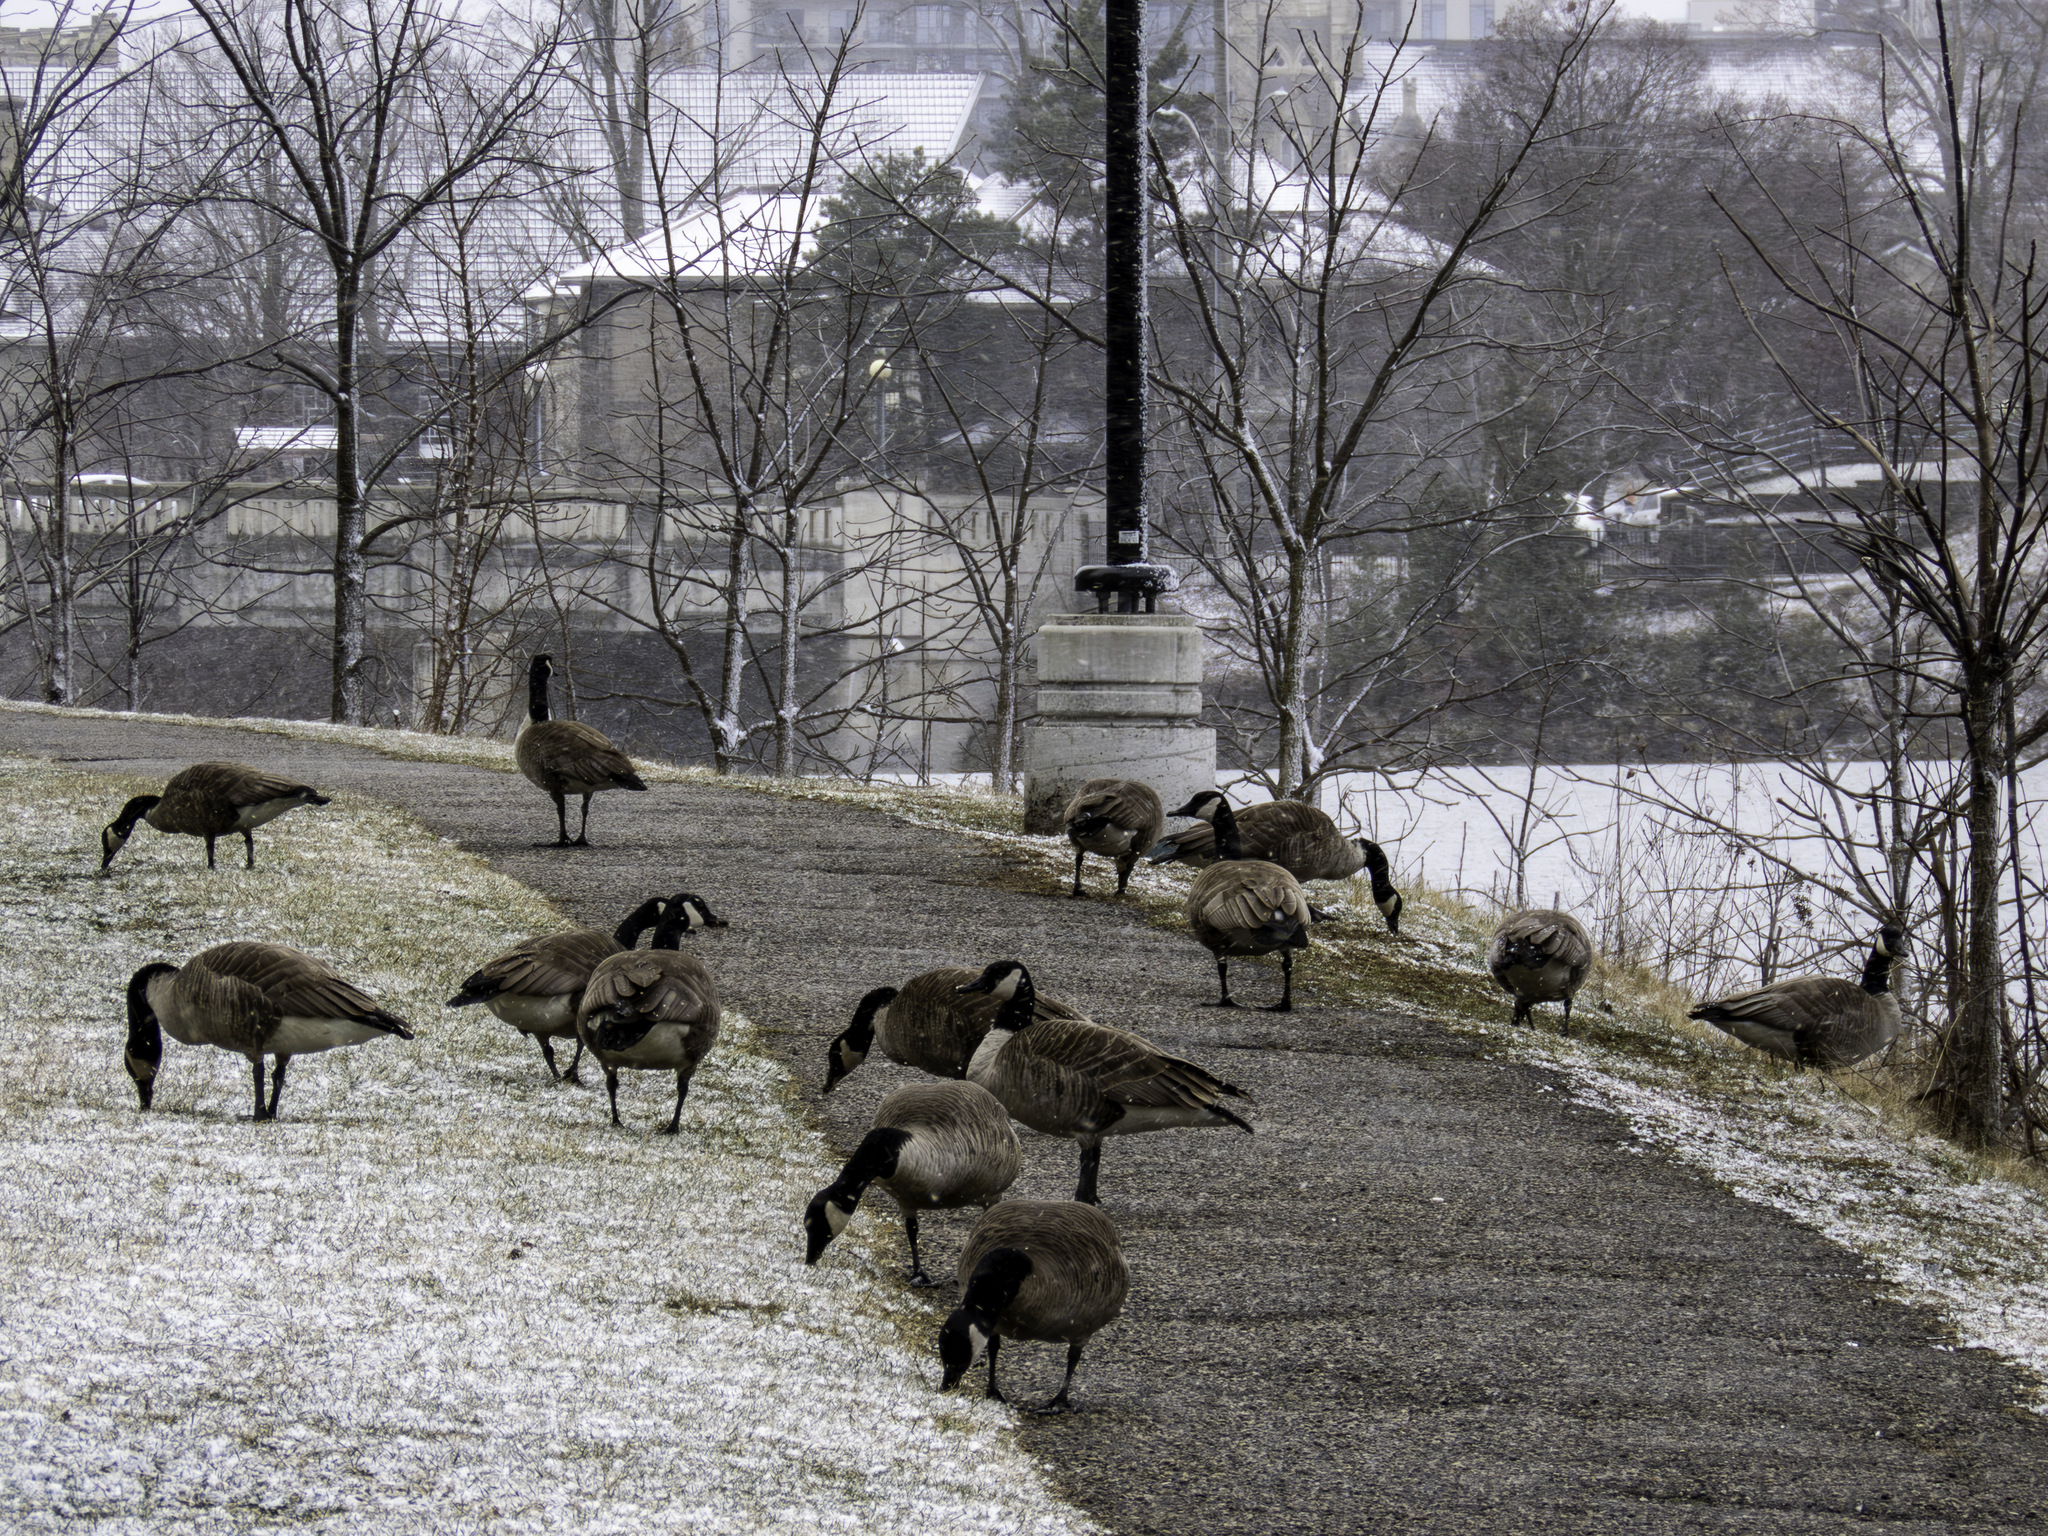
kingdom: Animalia
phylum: Chordata
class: Aves
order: Anseriformes
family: Anatidae
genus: Branta
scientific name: Branta canadensis
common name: Canada goose
